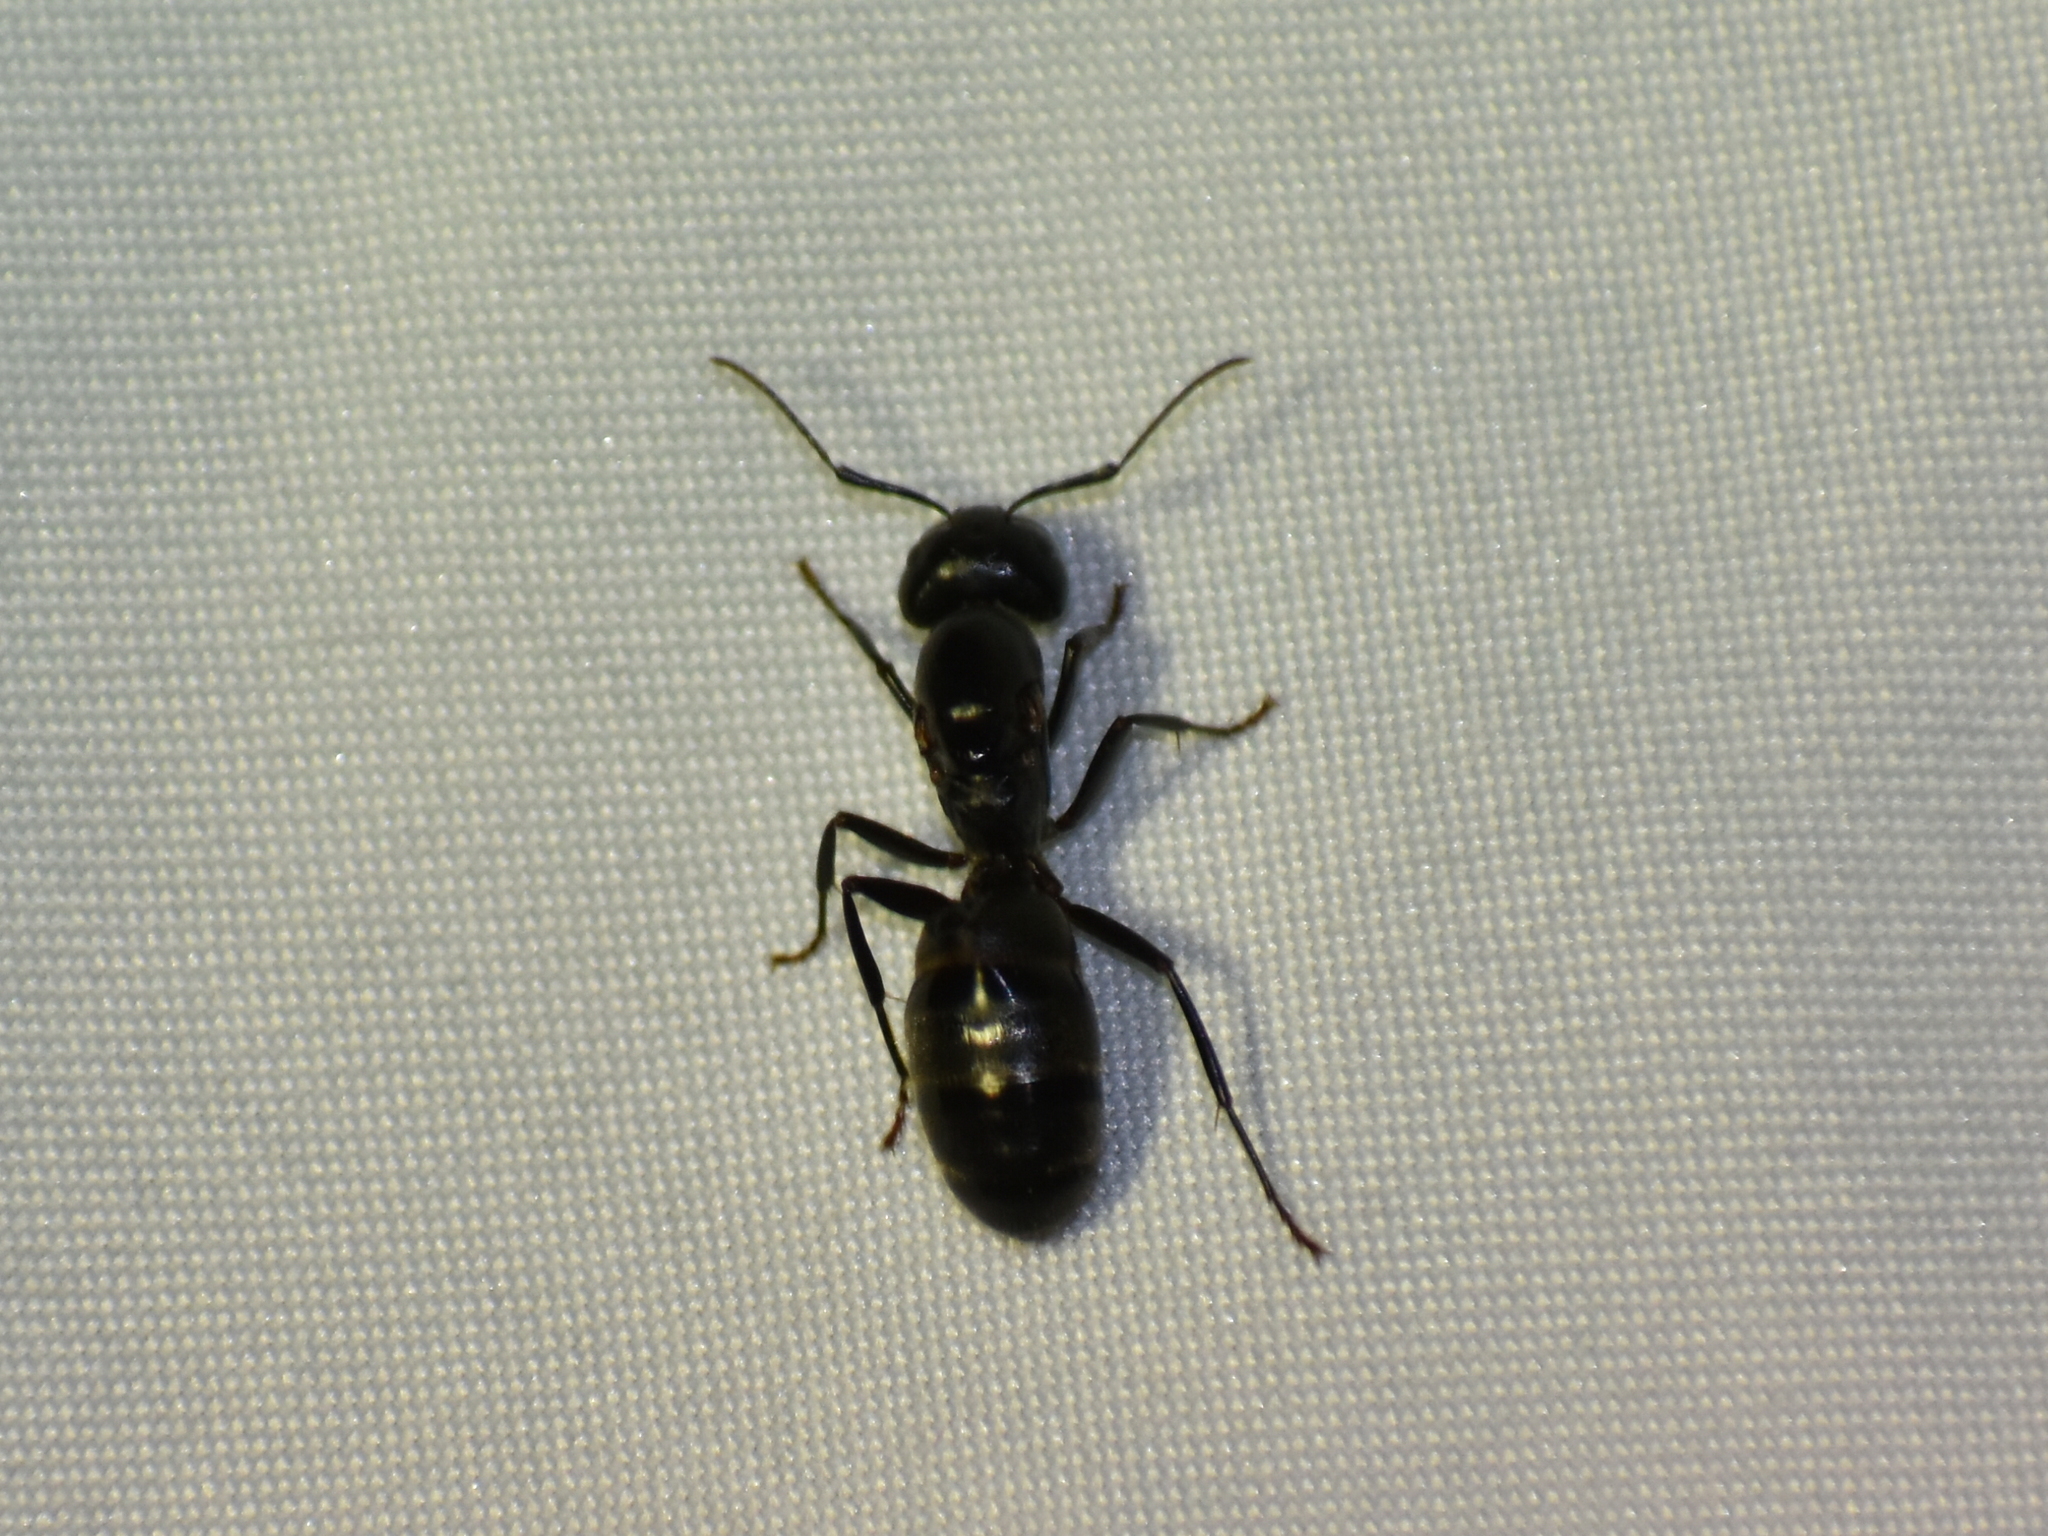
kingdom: Animalia
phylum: Arthropoda
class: Insecta
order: Hymenoptera
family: Formicidae
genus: Camponotus
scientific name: Camponotus pennsylvanicus
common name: Black carpenter ant
